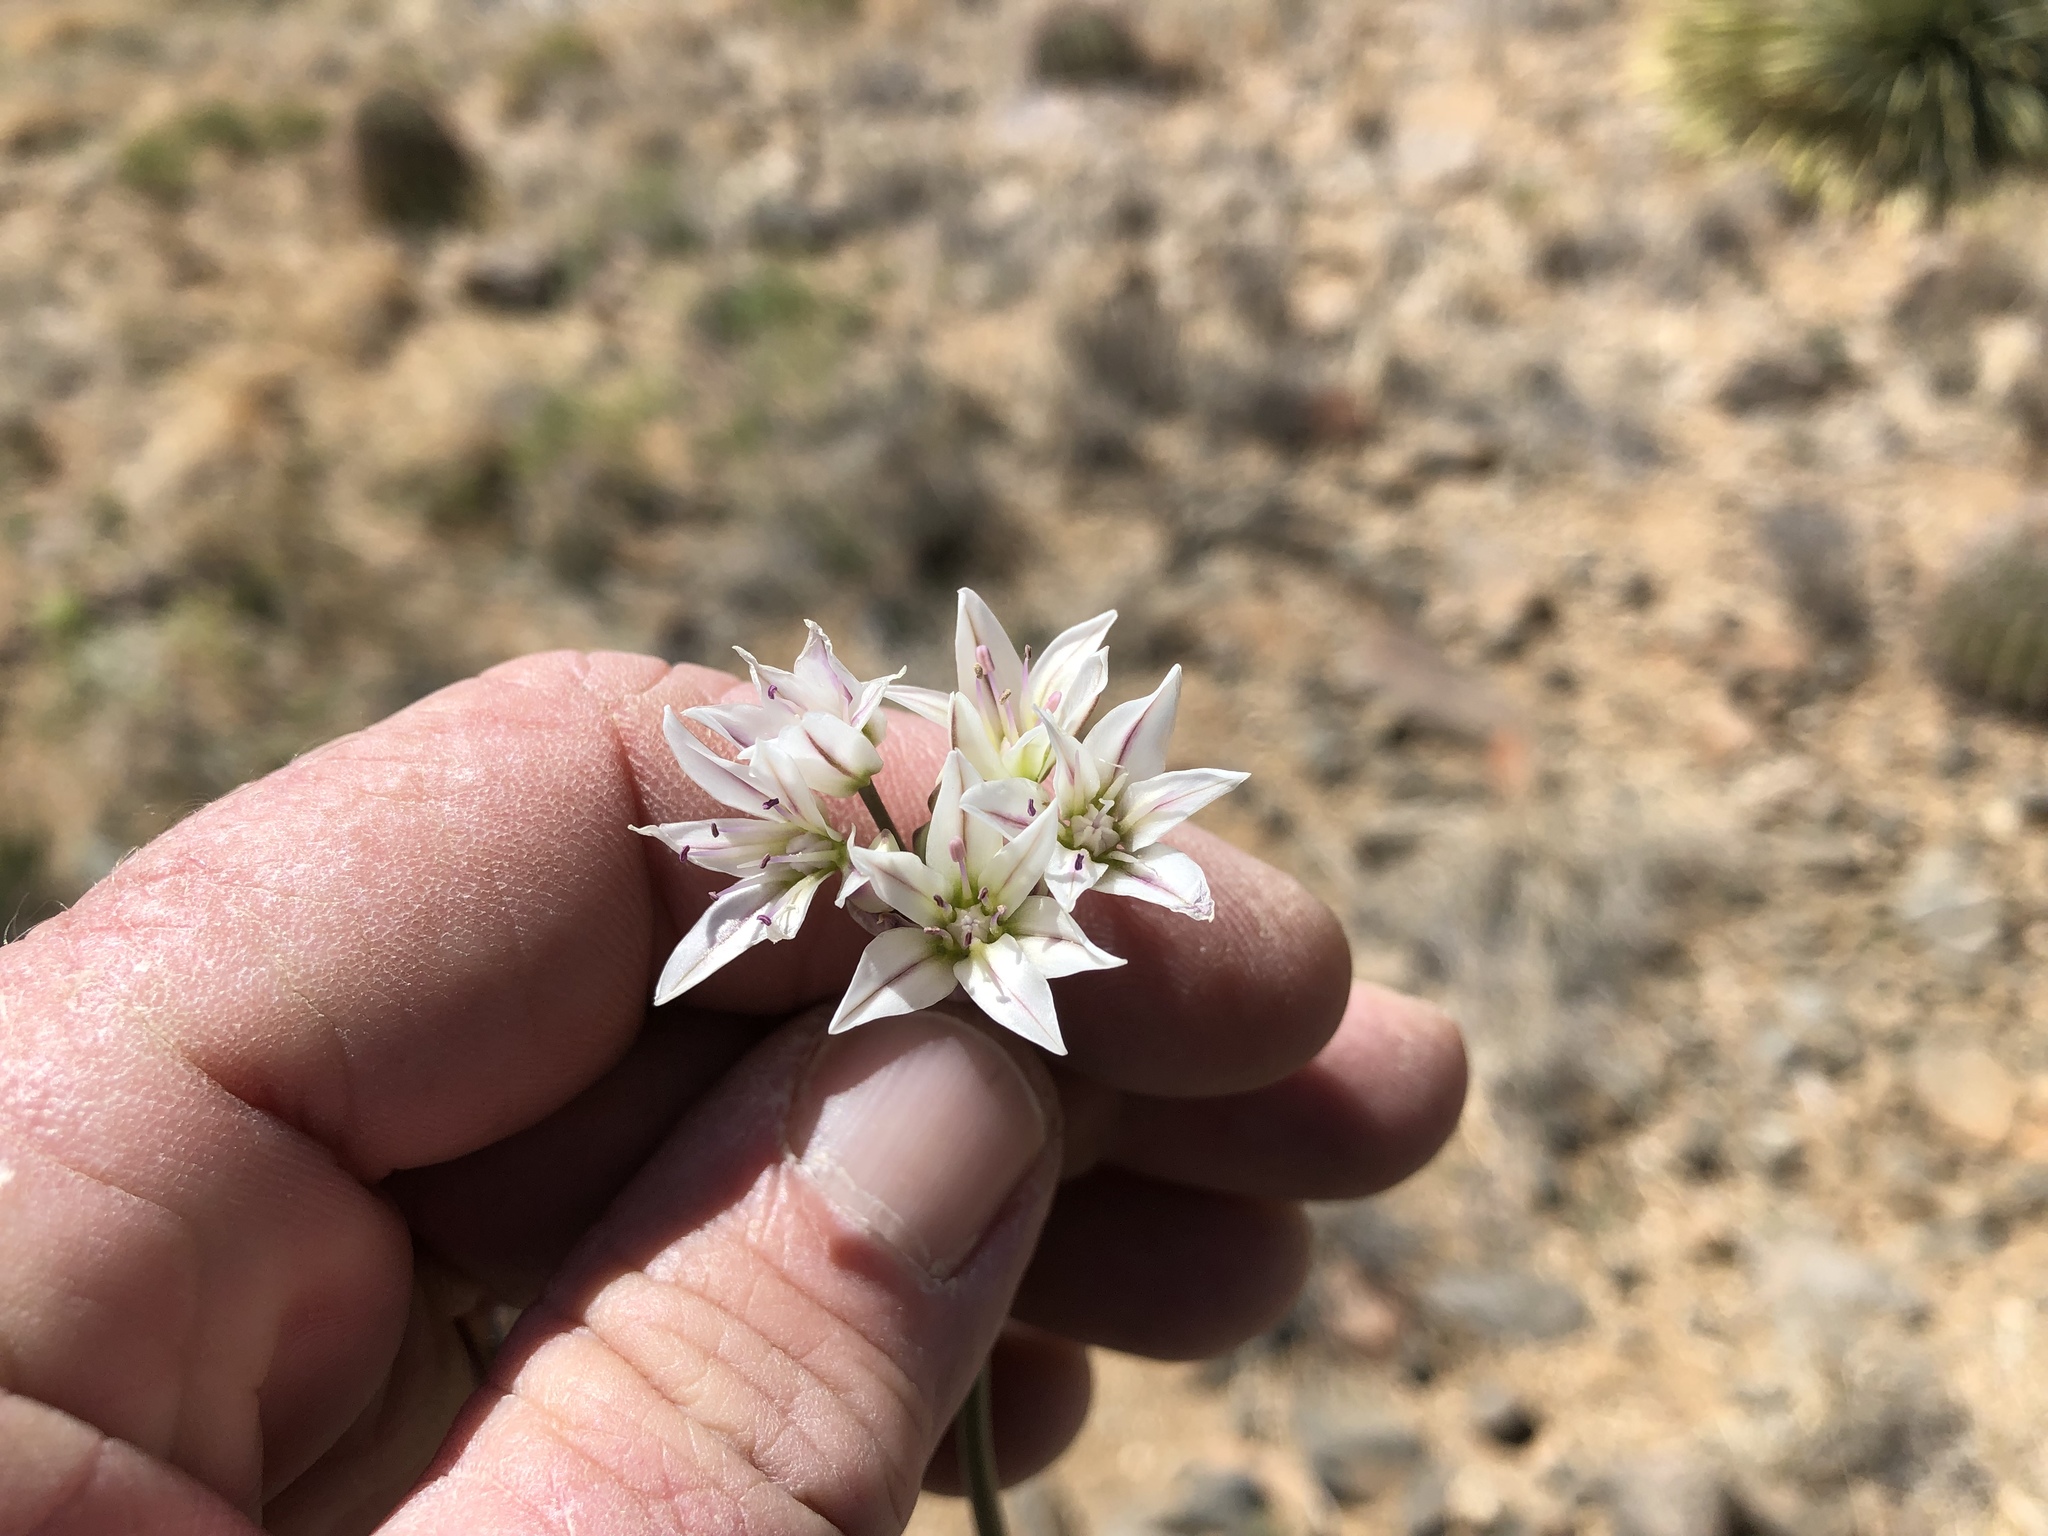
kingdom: Plantae
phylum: Tracheophyta
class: Liliopsida
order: Asparagales
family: Amaryllidaceae
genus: Allium
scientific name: Allium macropetalum
